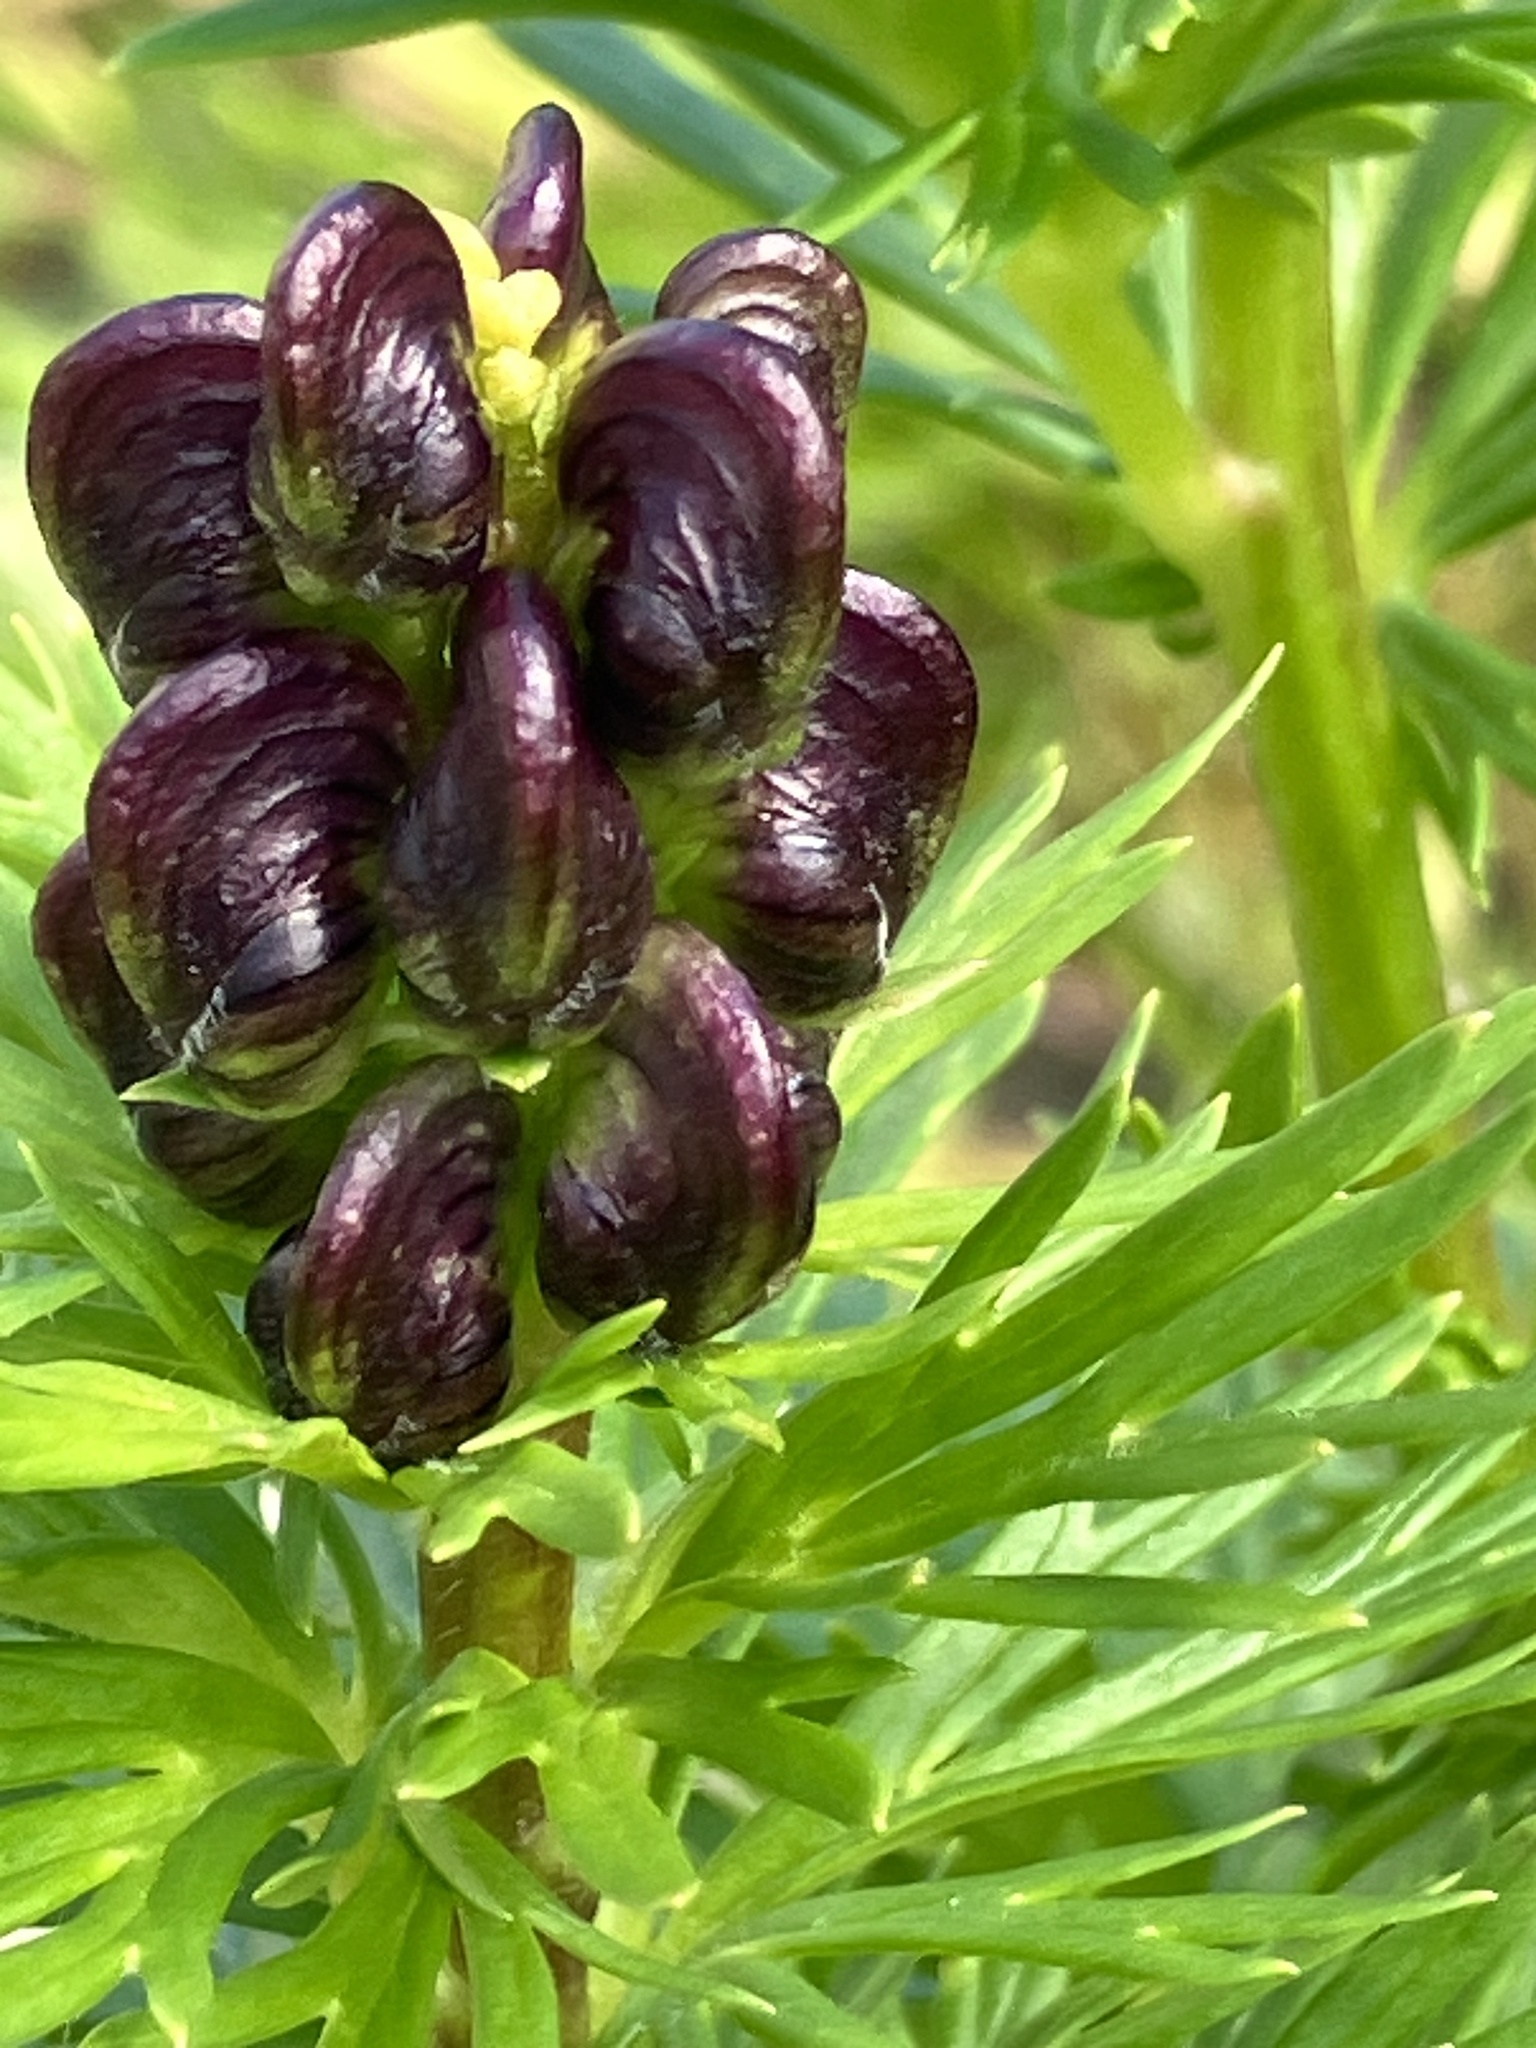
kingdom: Plantae
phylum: Tracheophyta
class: Magnoliopsida
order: Ranunculales
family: Ranunculaceae
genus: Aconitum
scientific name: Aconitum tauricum
